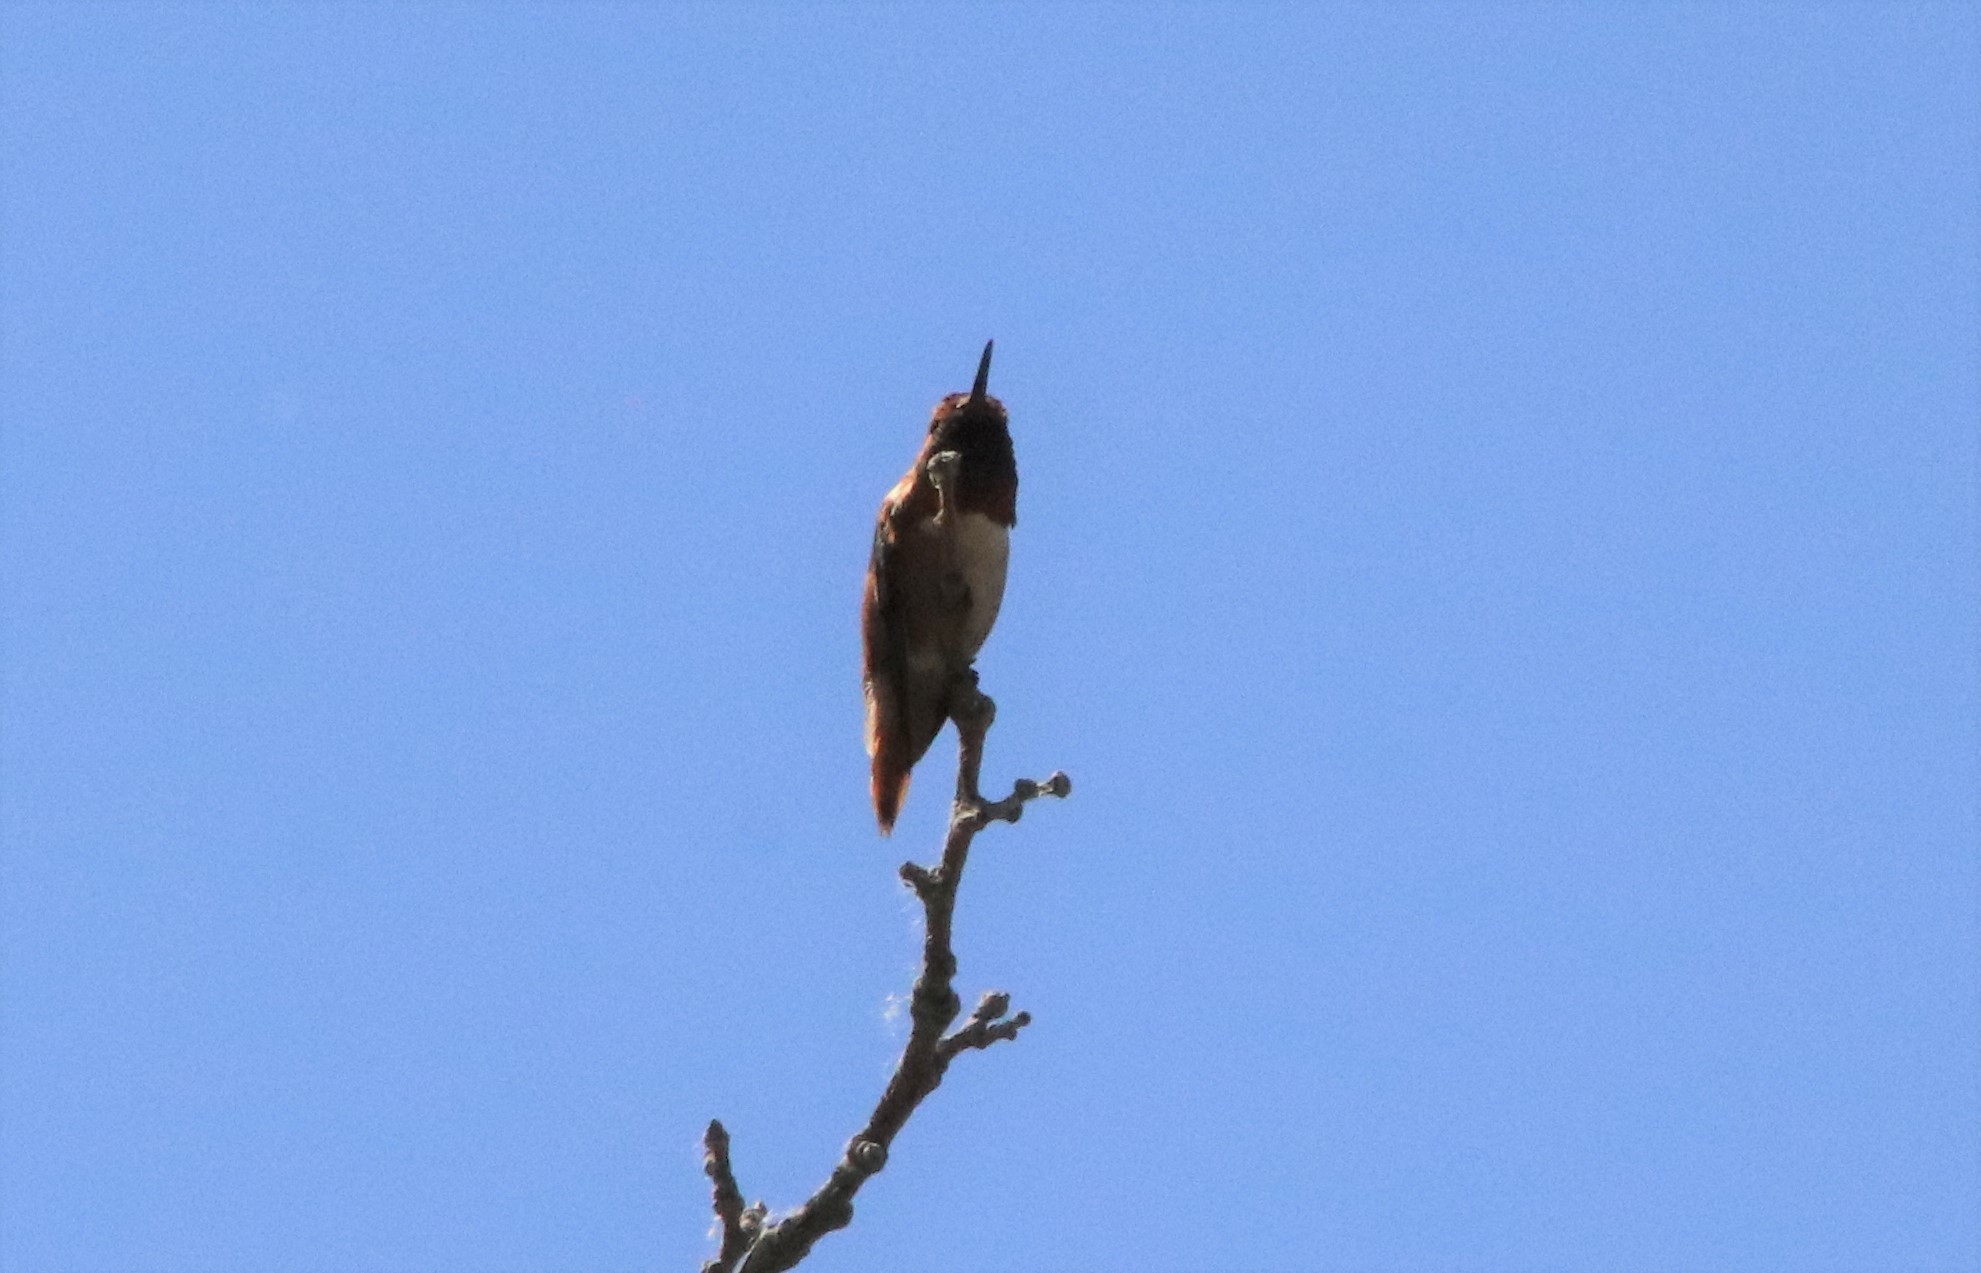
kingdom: Animalia
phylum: Chordata
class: Aves
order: Apodiformes
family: Trochilidae
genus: Selasphorus
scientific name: Selasphorus
